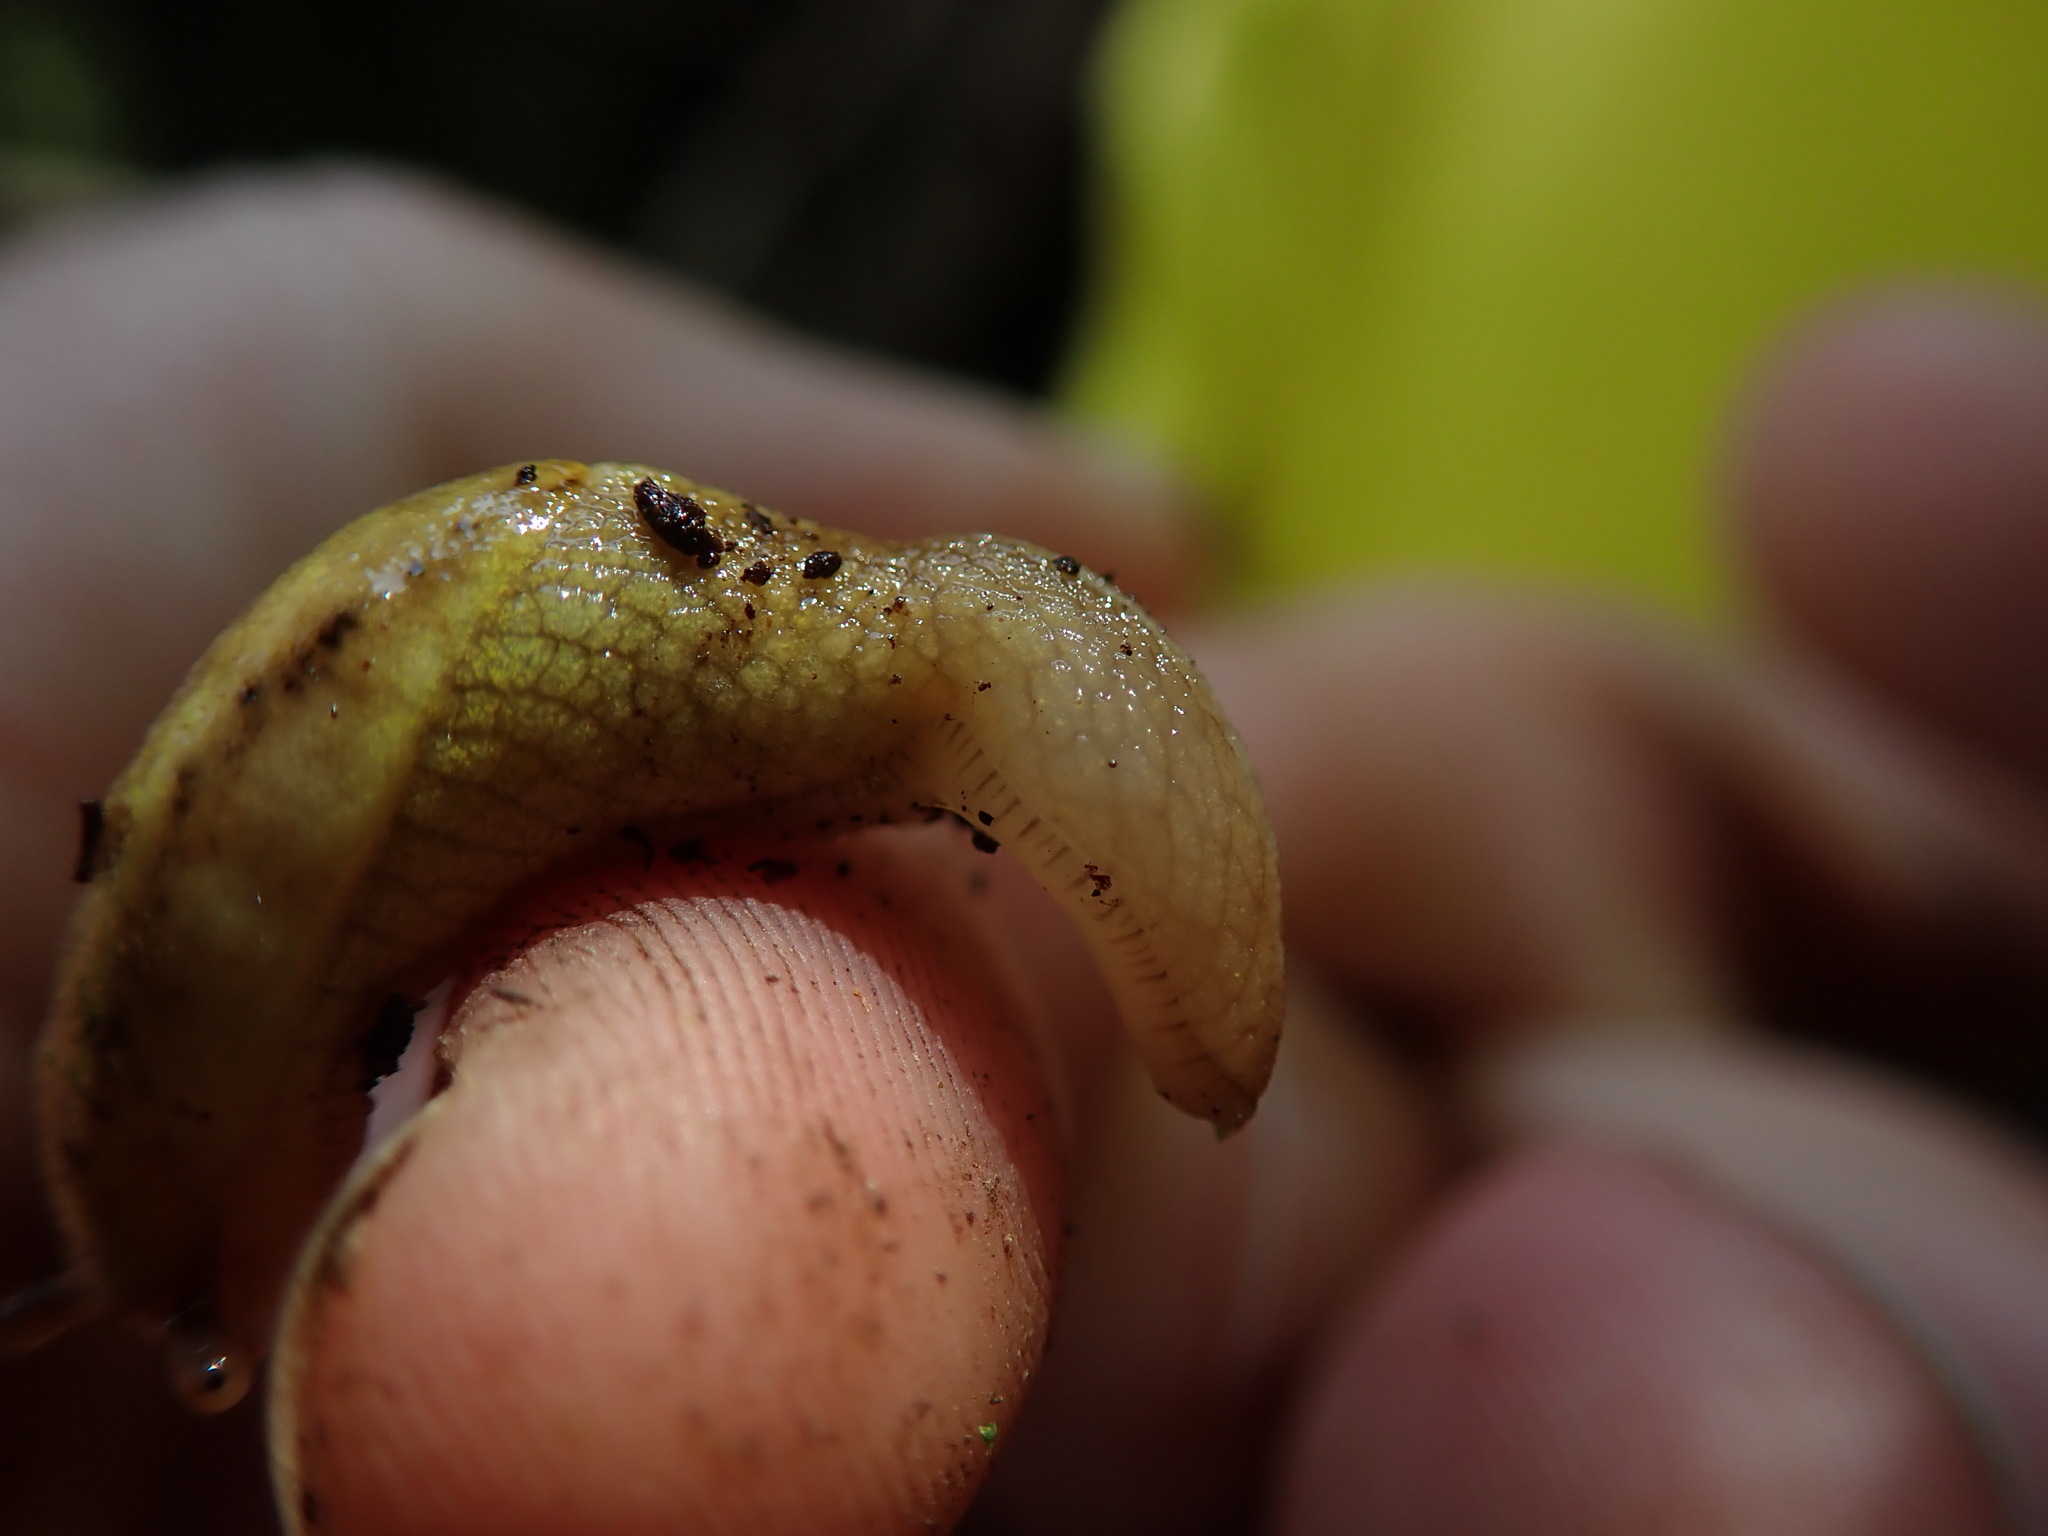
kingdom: Animalia
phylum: Mollusca
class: Gastropoda
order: Stylommatophora
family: Ariolimacidae
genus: Prophysaon
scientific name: Prophysaon foliolatum
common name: Yellow-bordered taildropper
